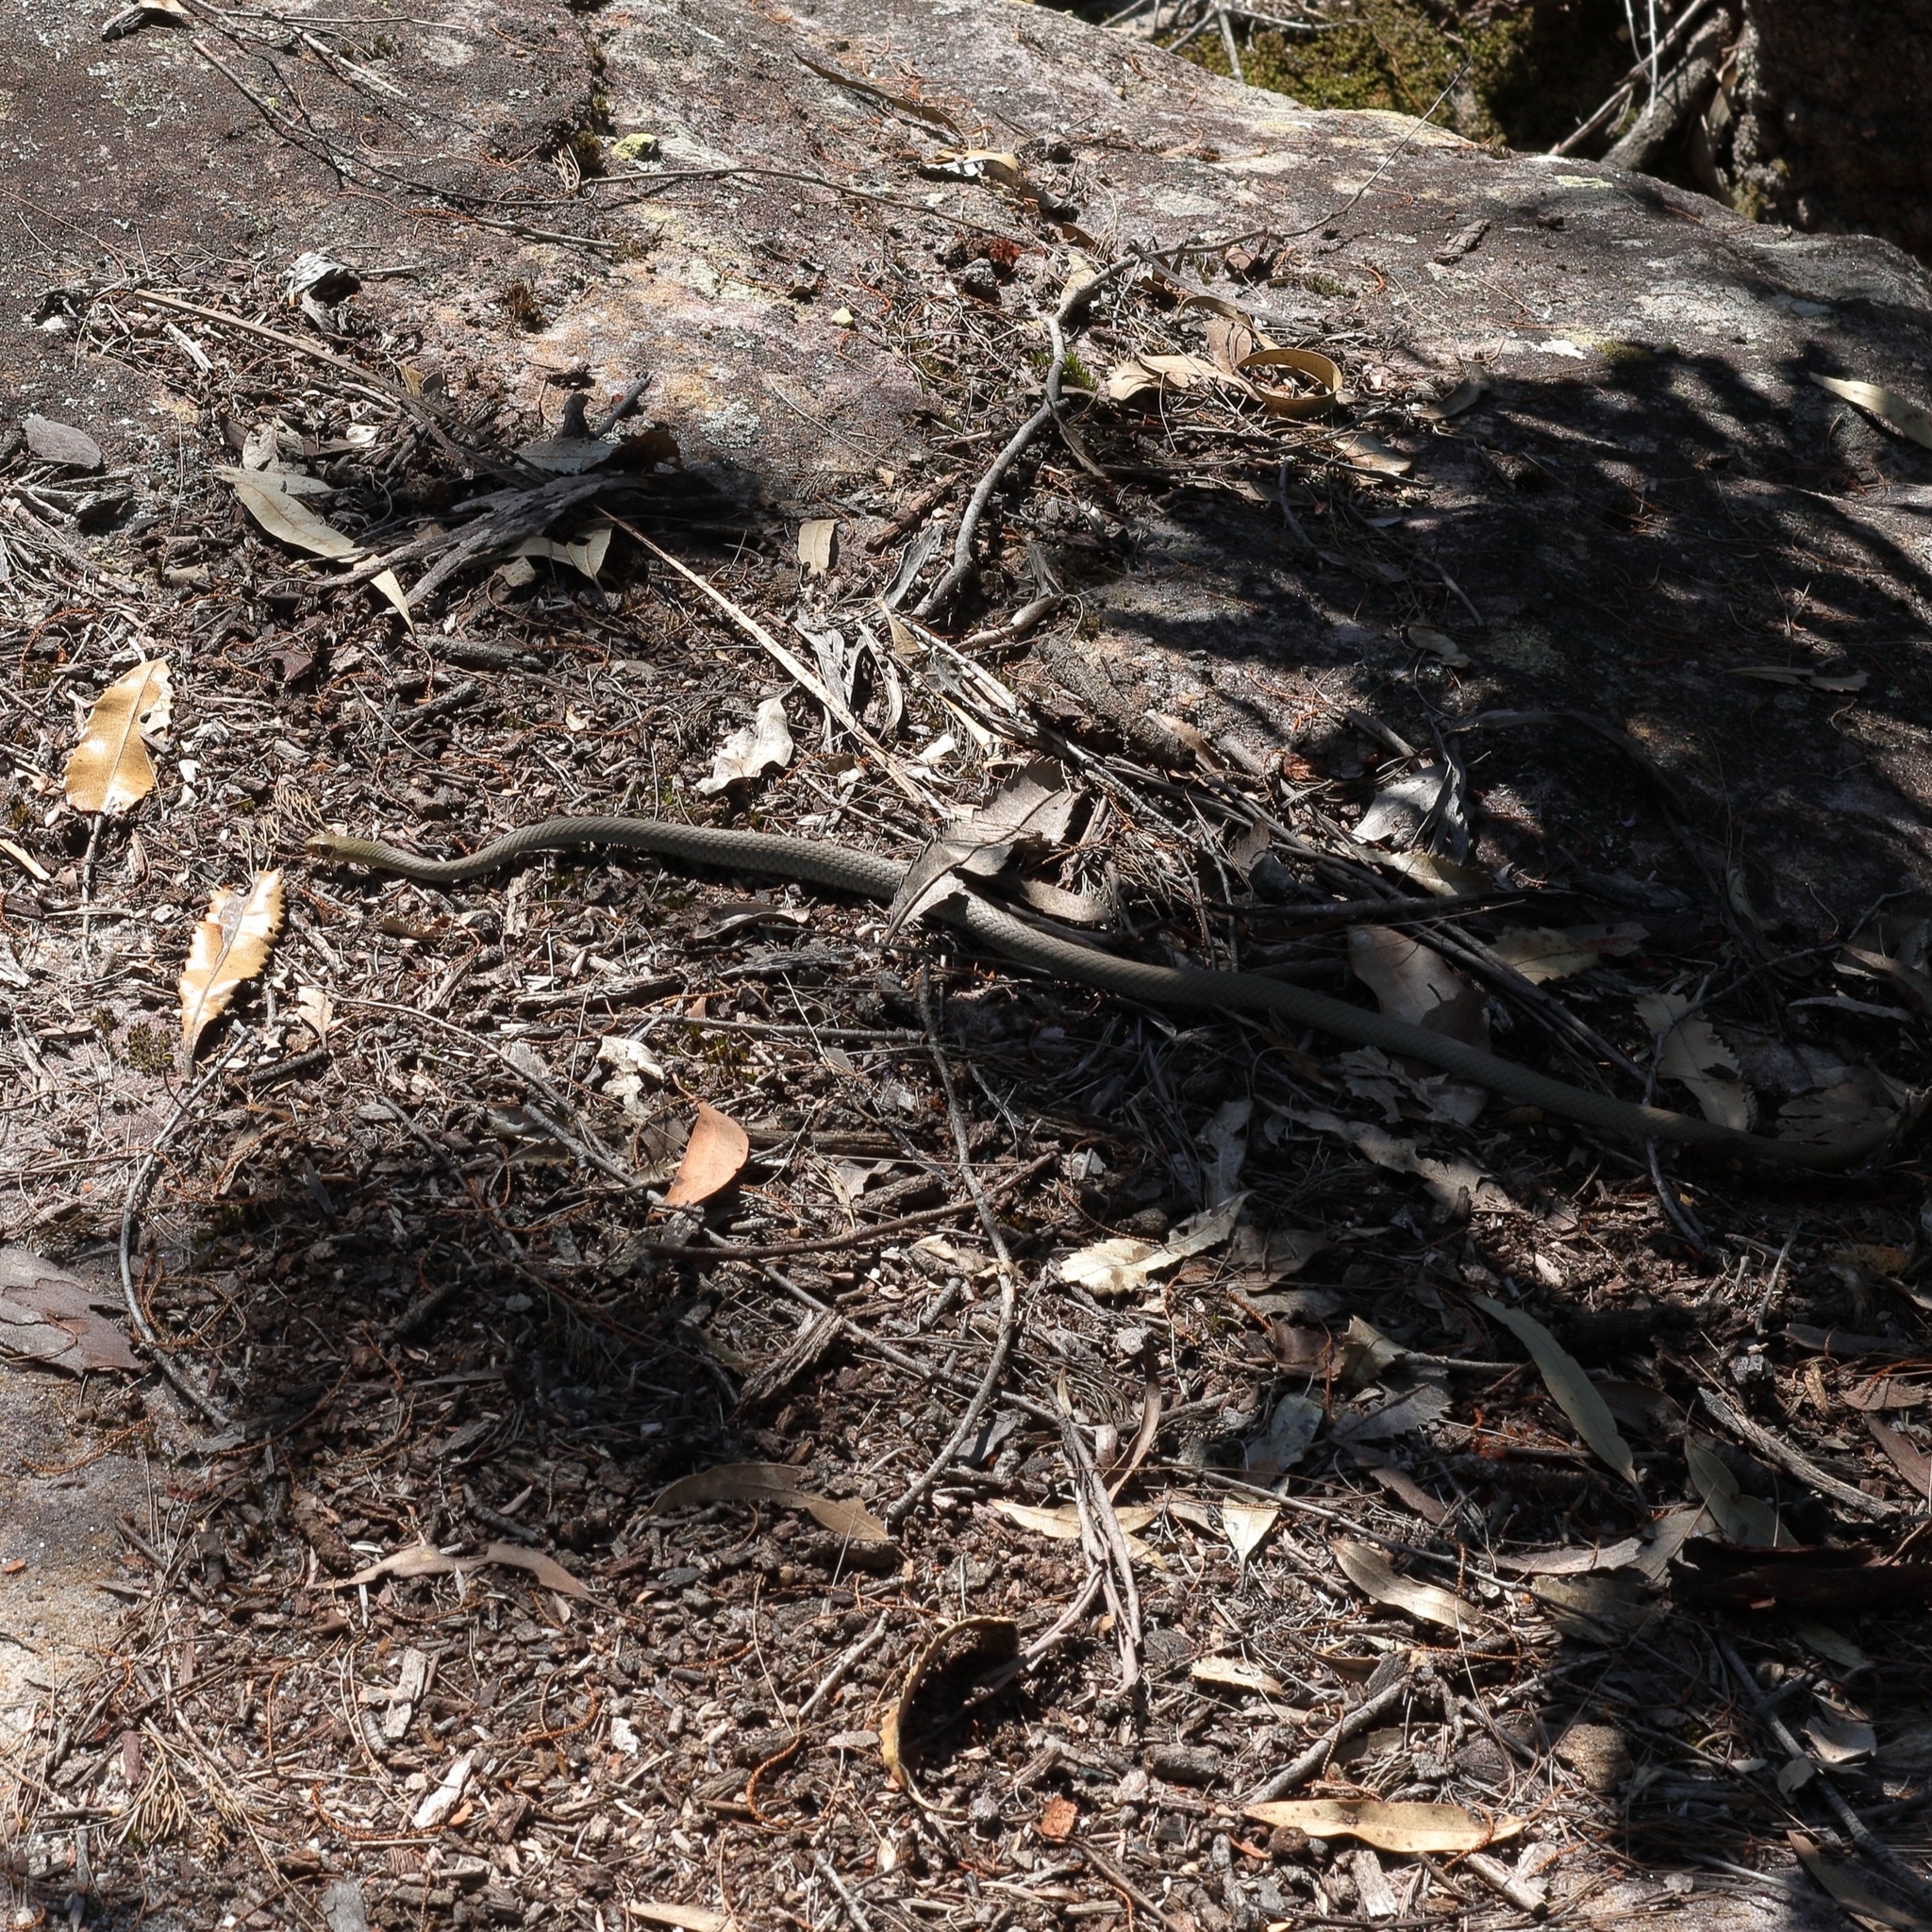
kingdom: Animalia
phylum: Chordata
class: Squamata
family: Elapidae
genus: Demansia
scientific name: Demansia psammophis
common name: Yellow-faced whip snake
